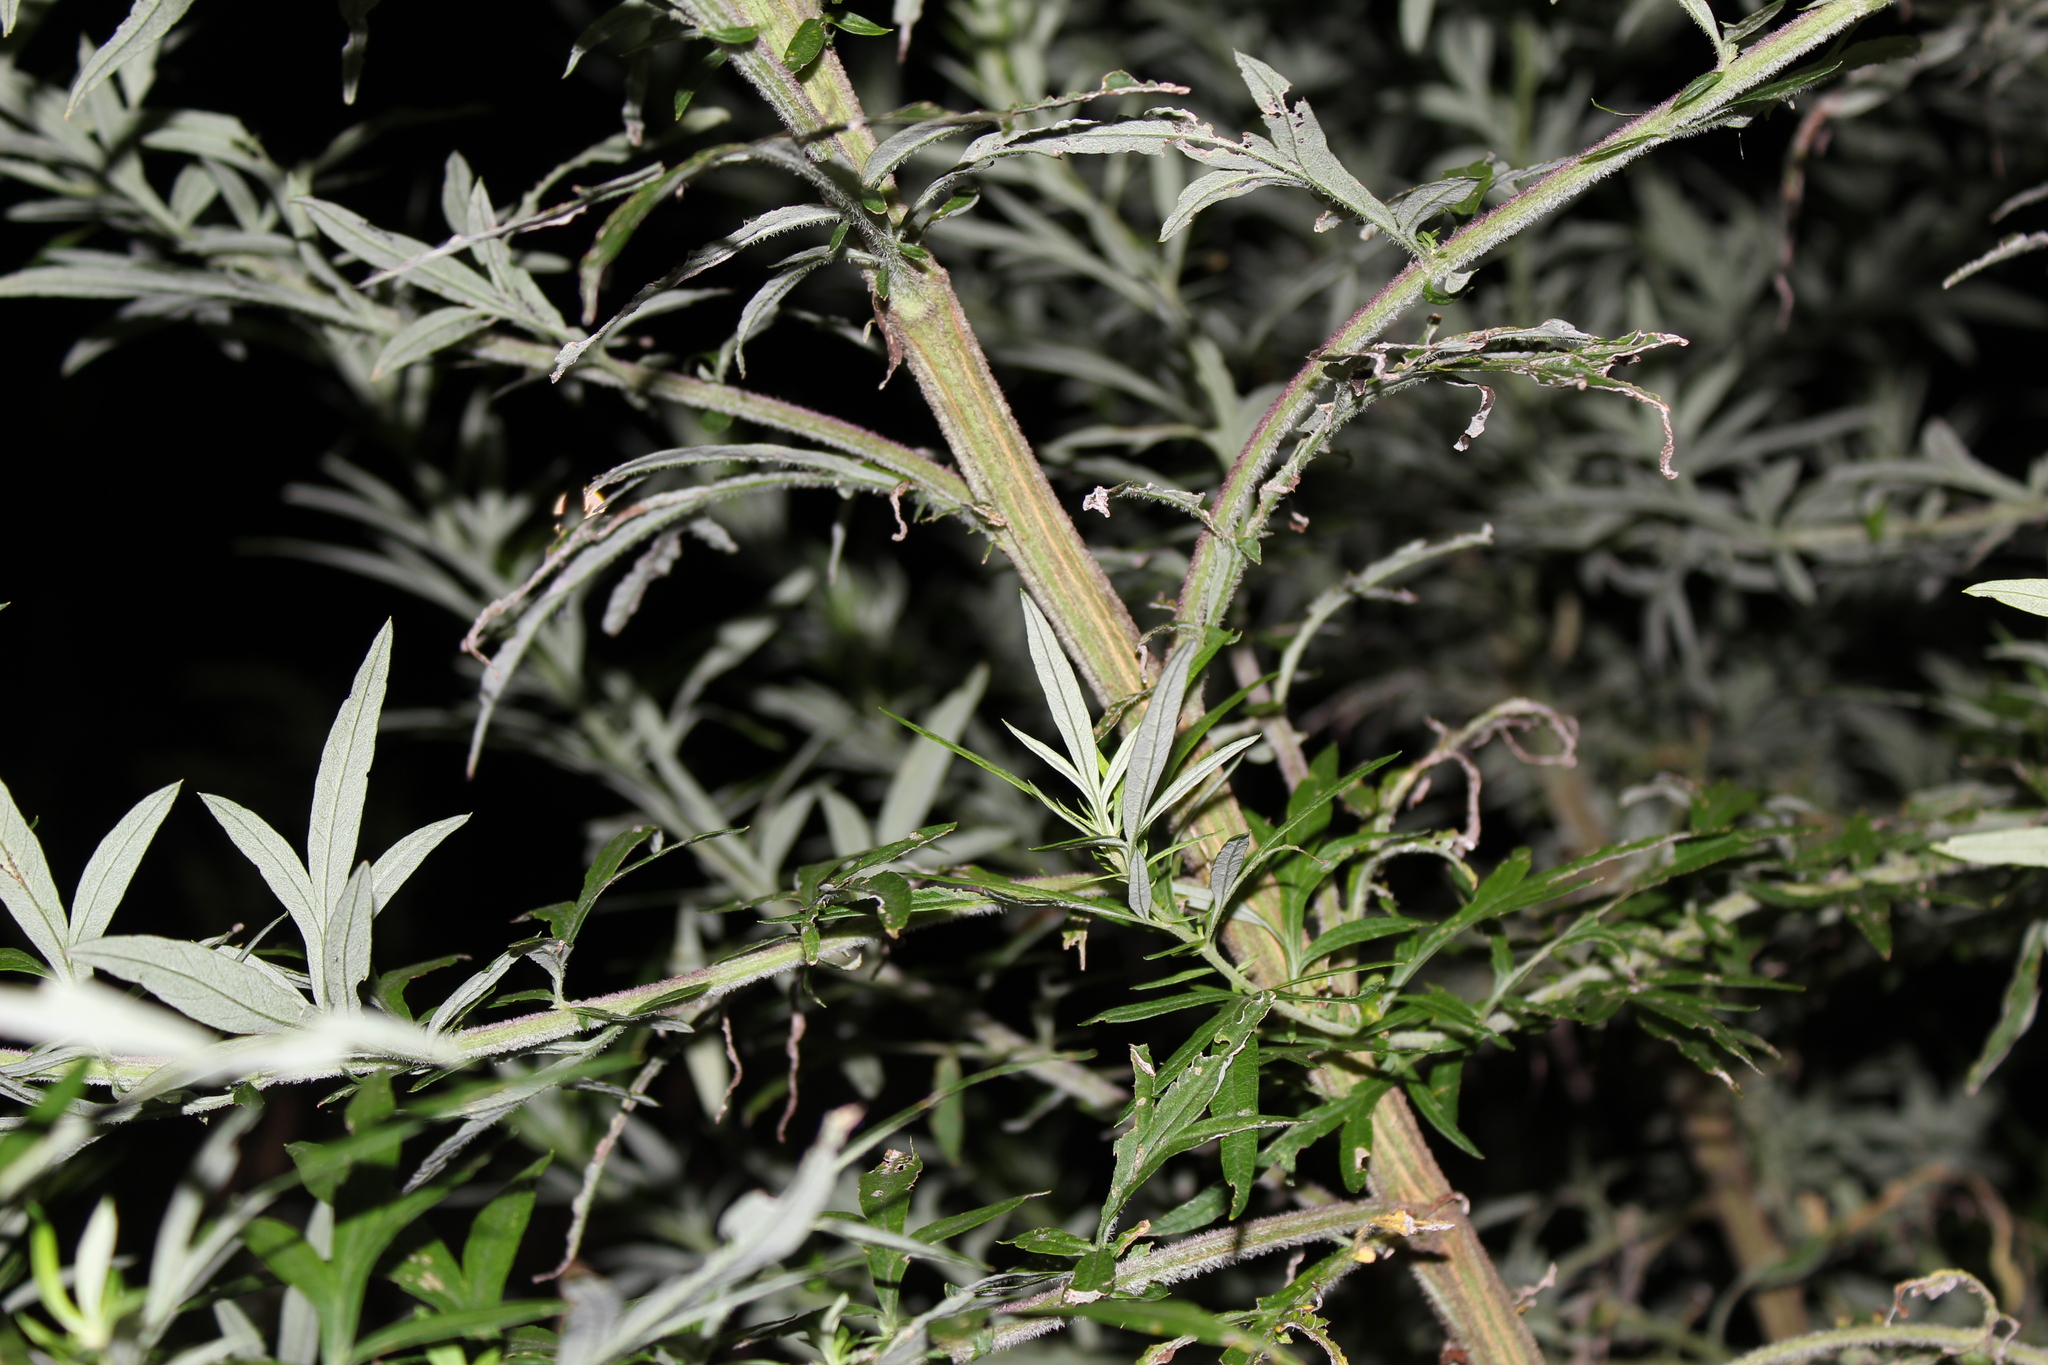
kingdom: Plantae
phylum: Tracheophyta
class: Magnoliopsida
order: Asterales
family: Asteraceae
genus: Artemisia
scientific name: Artemisia vulgaris
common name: Mugwort
